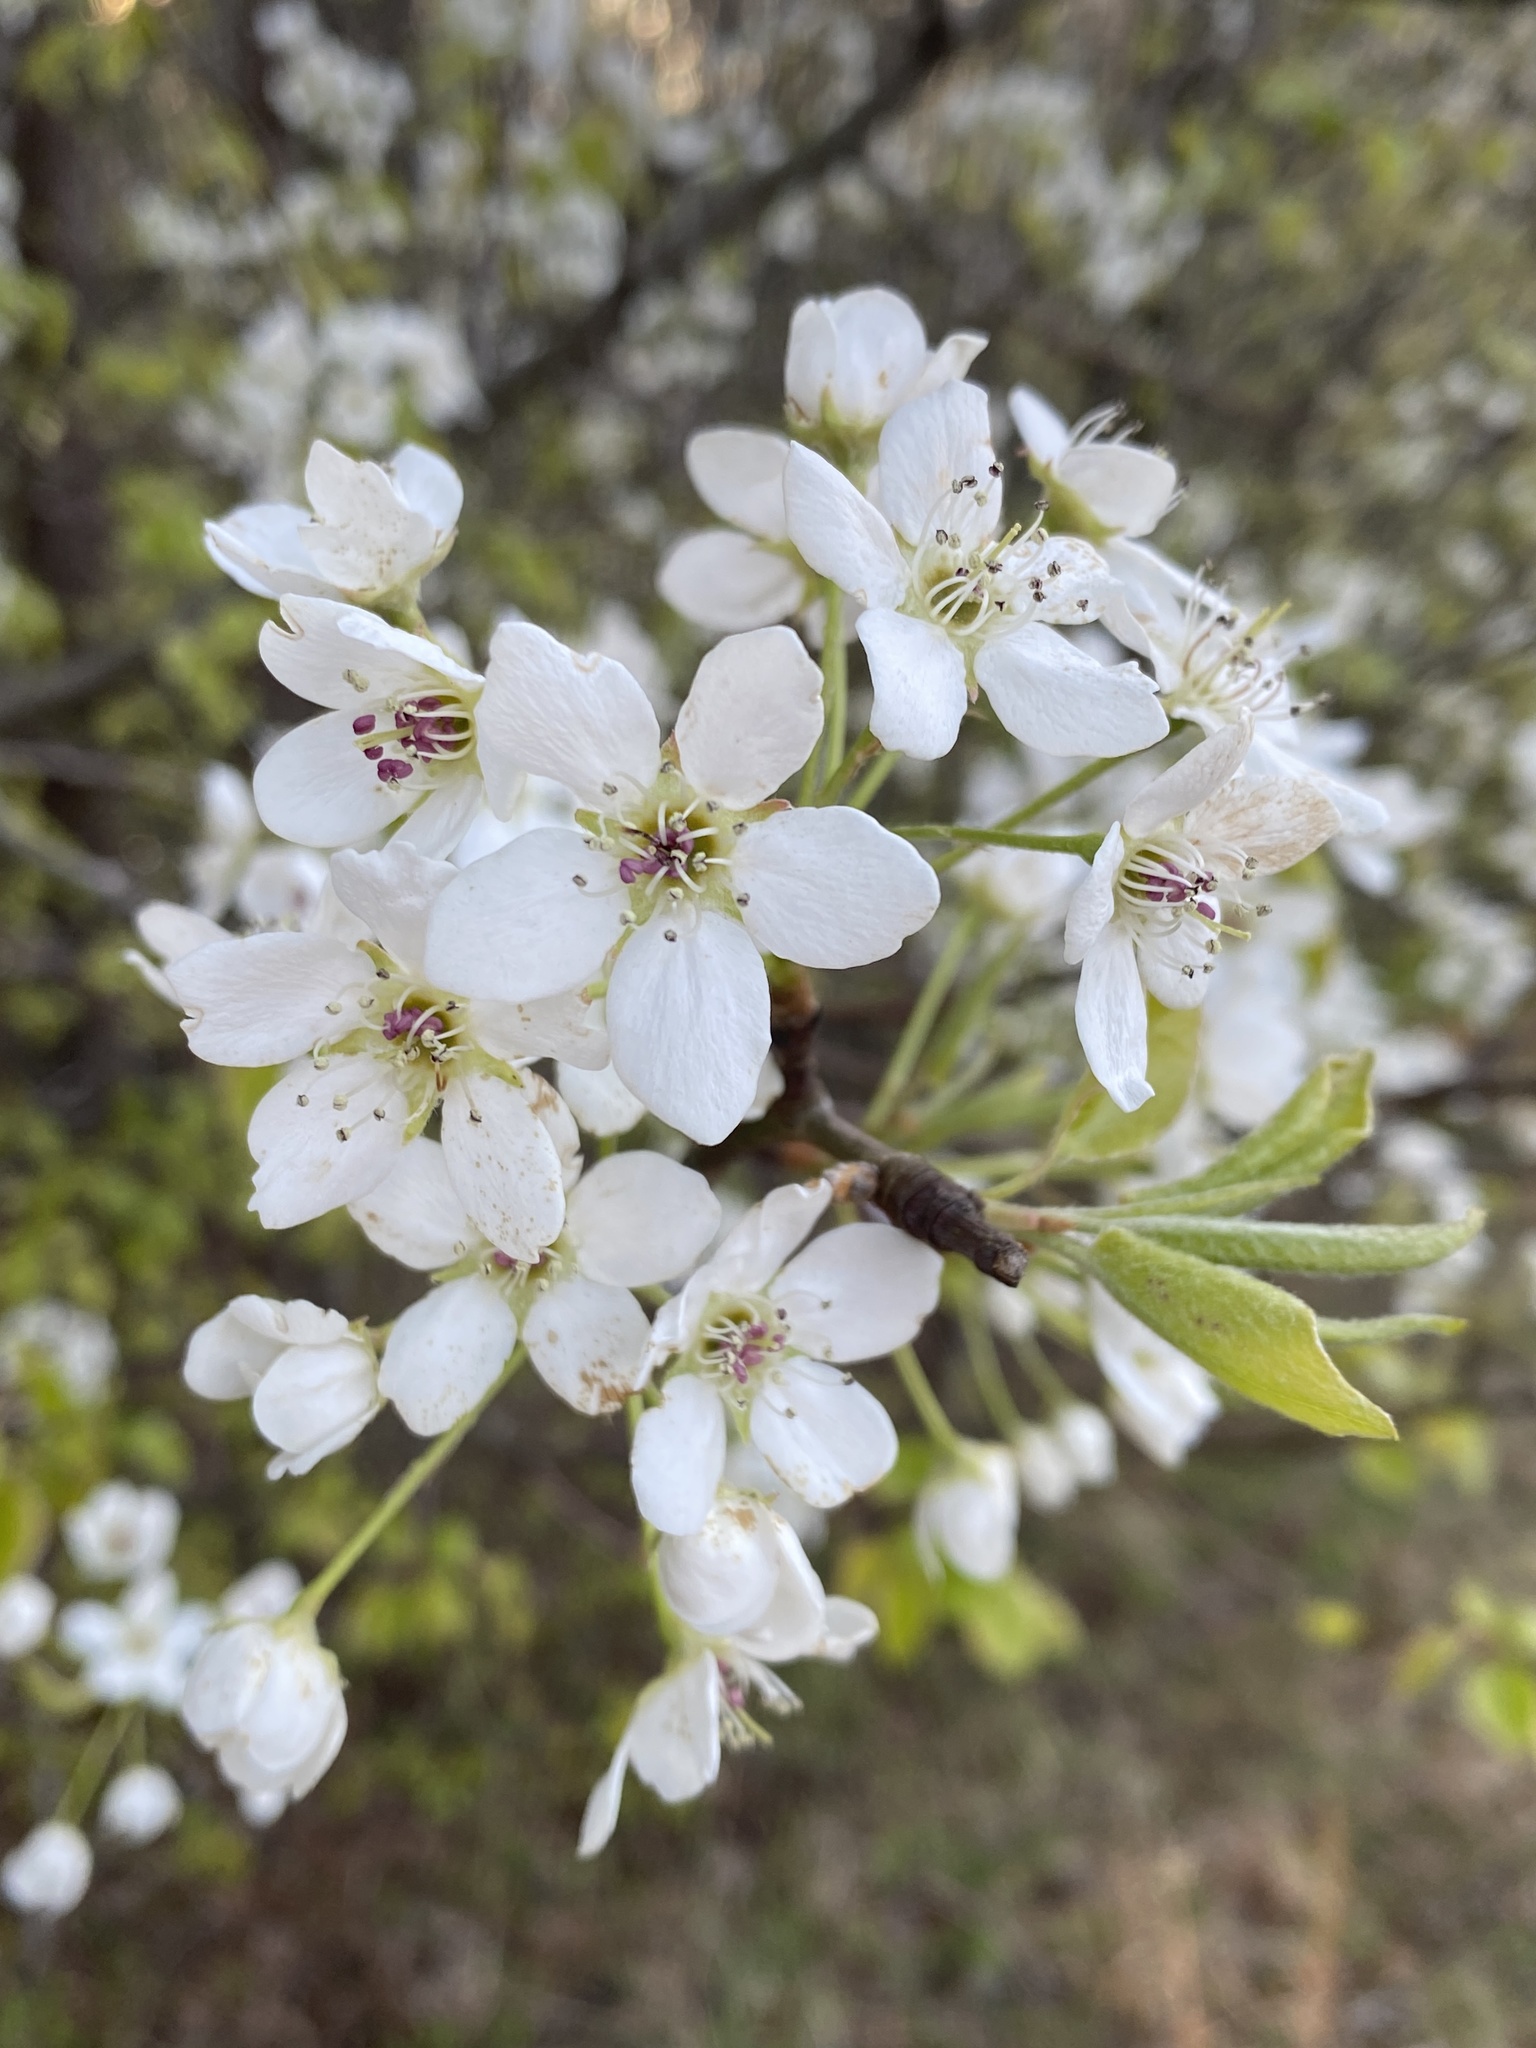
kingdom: Plantae
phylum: Tracheophyta
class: Magnoliopsida
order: Rosales
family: Rosaceae
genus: Pyrus
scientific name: Pyrus calleryana
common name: Callery pear
